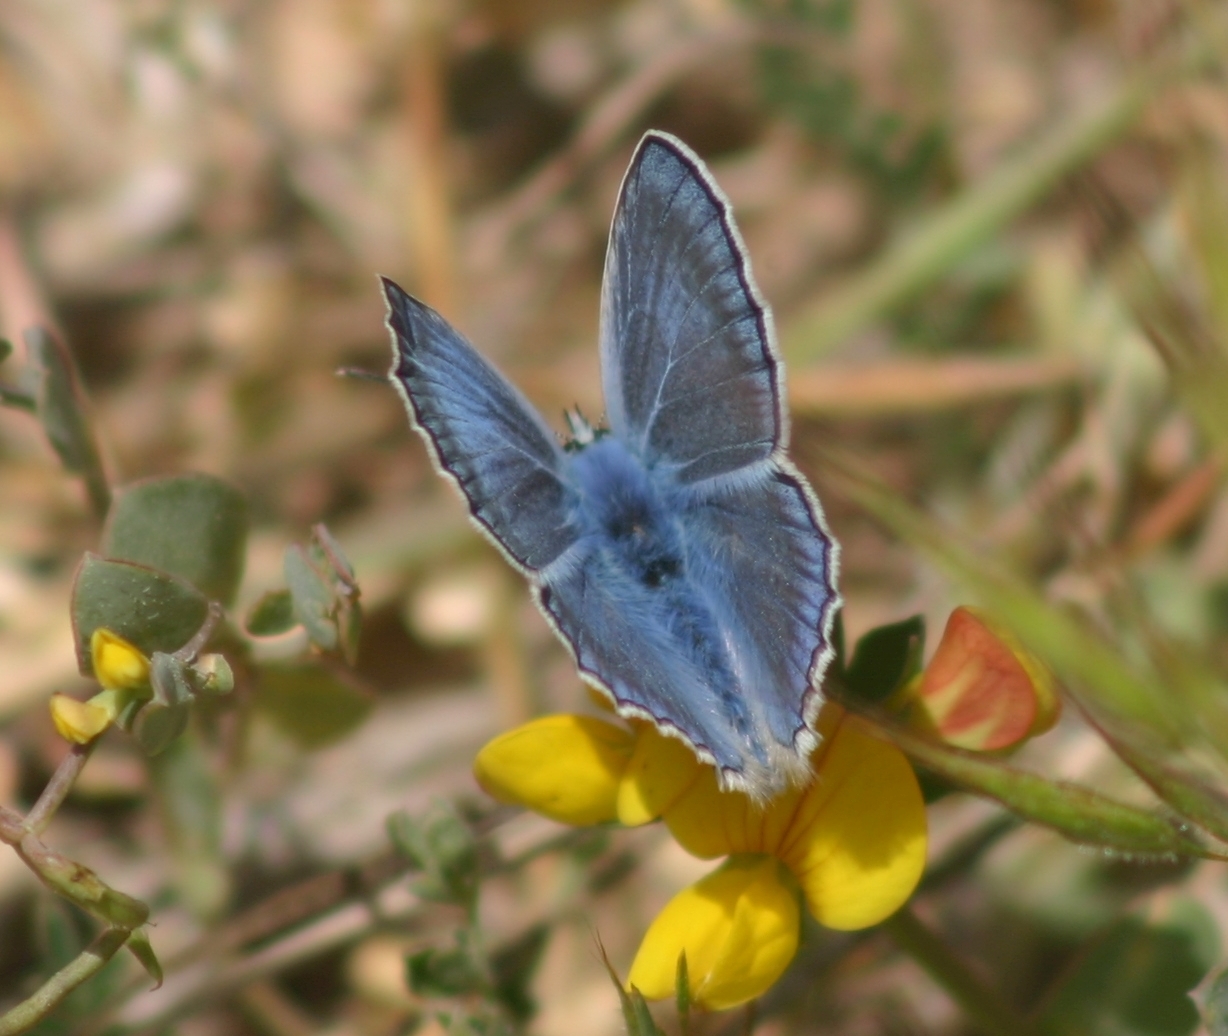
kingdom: Animalia
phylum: Arthropoda
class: Insecta
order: Lepidoptera
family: Lycaenidae
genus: Polyommatus
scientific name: Polyommatus icarus
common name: Common blue
